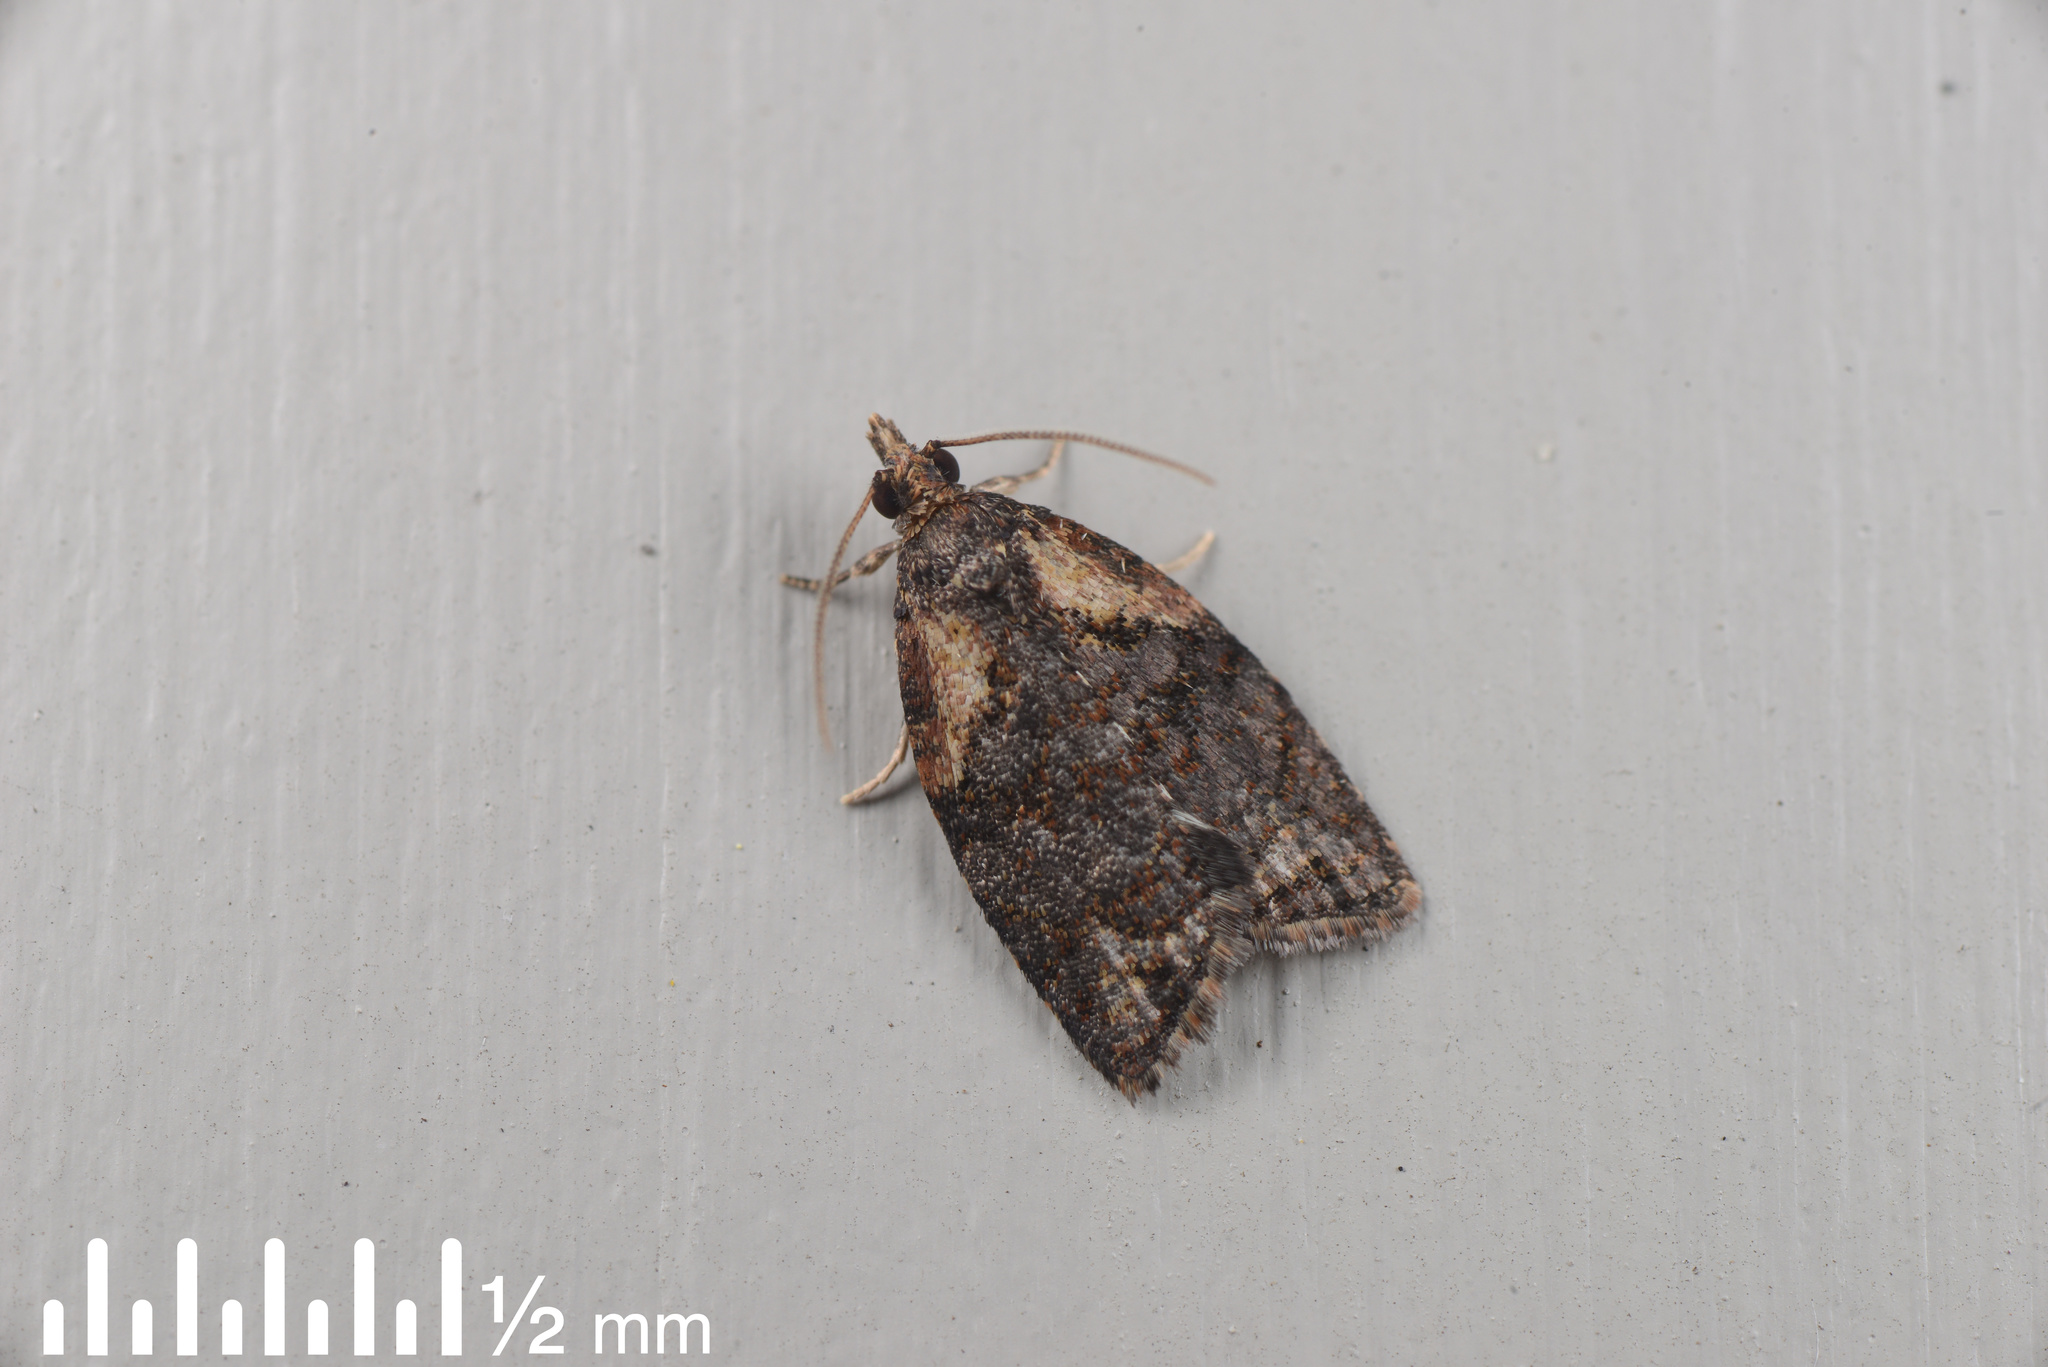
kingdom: Animalia
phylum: Arthropoda
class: Insecta
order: Lepidoptera
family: Tortricidae
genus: Capua
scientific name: Capua intractana
